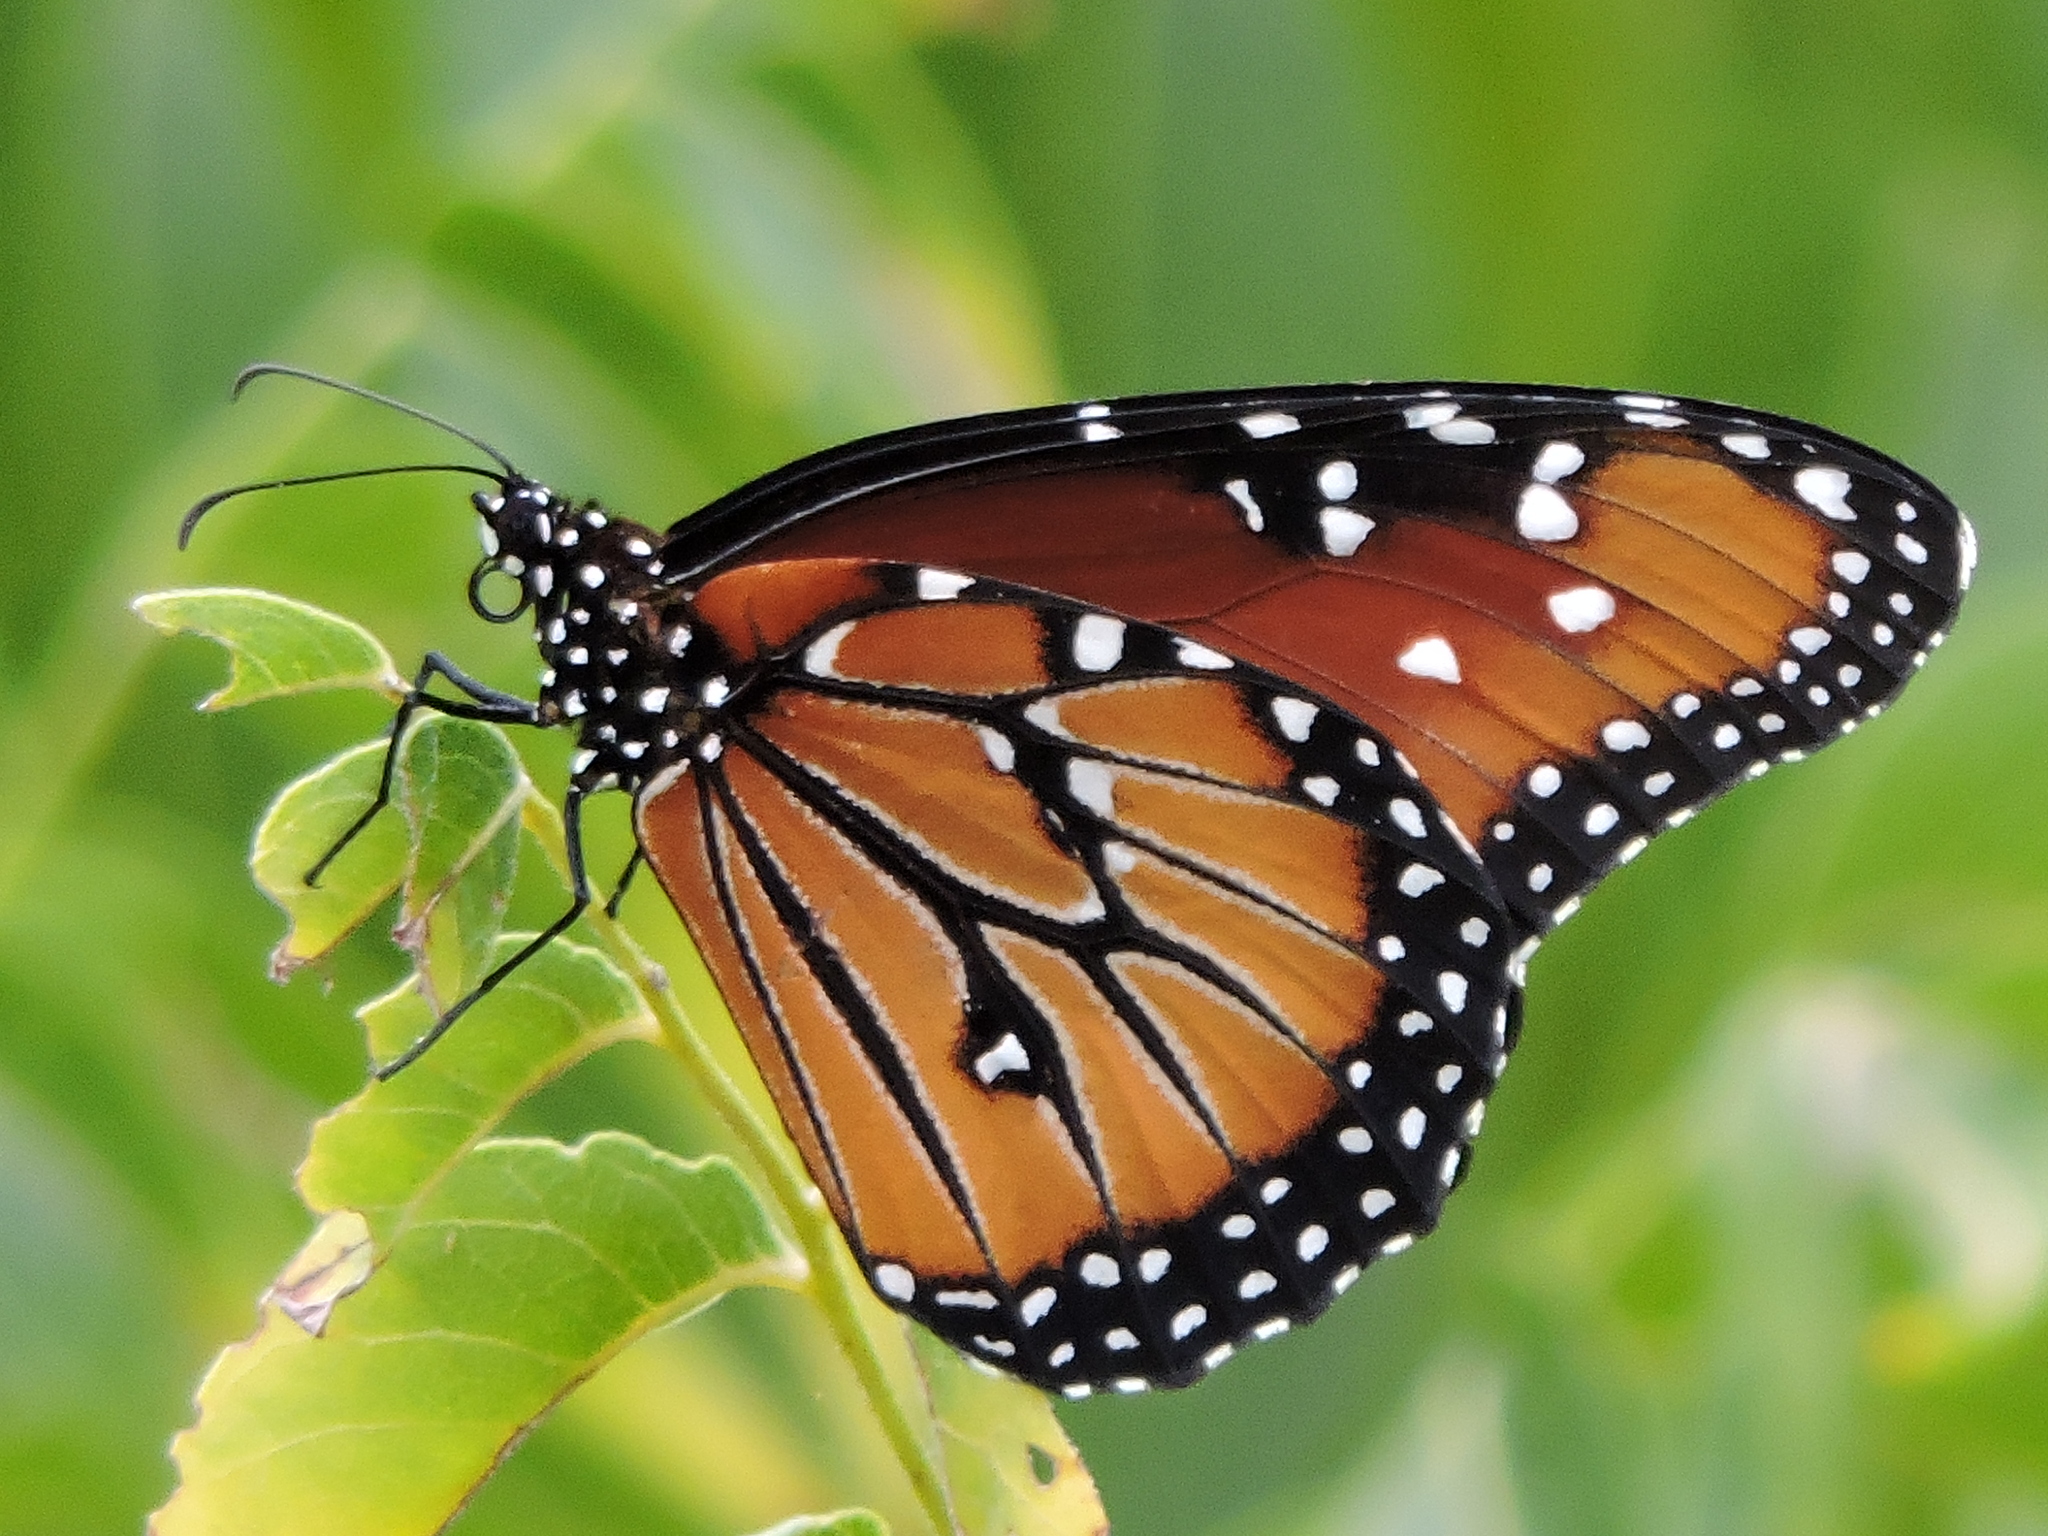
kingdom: Animalia
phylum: Arthropoda
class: Insecta
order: Lepidoptera
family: Nymphalidae
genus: Danaus
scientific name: Danaus gilippus
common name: Queen
